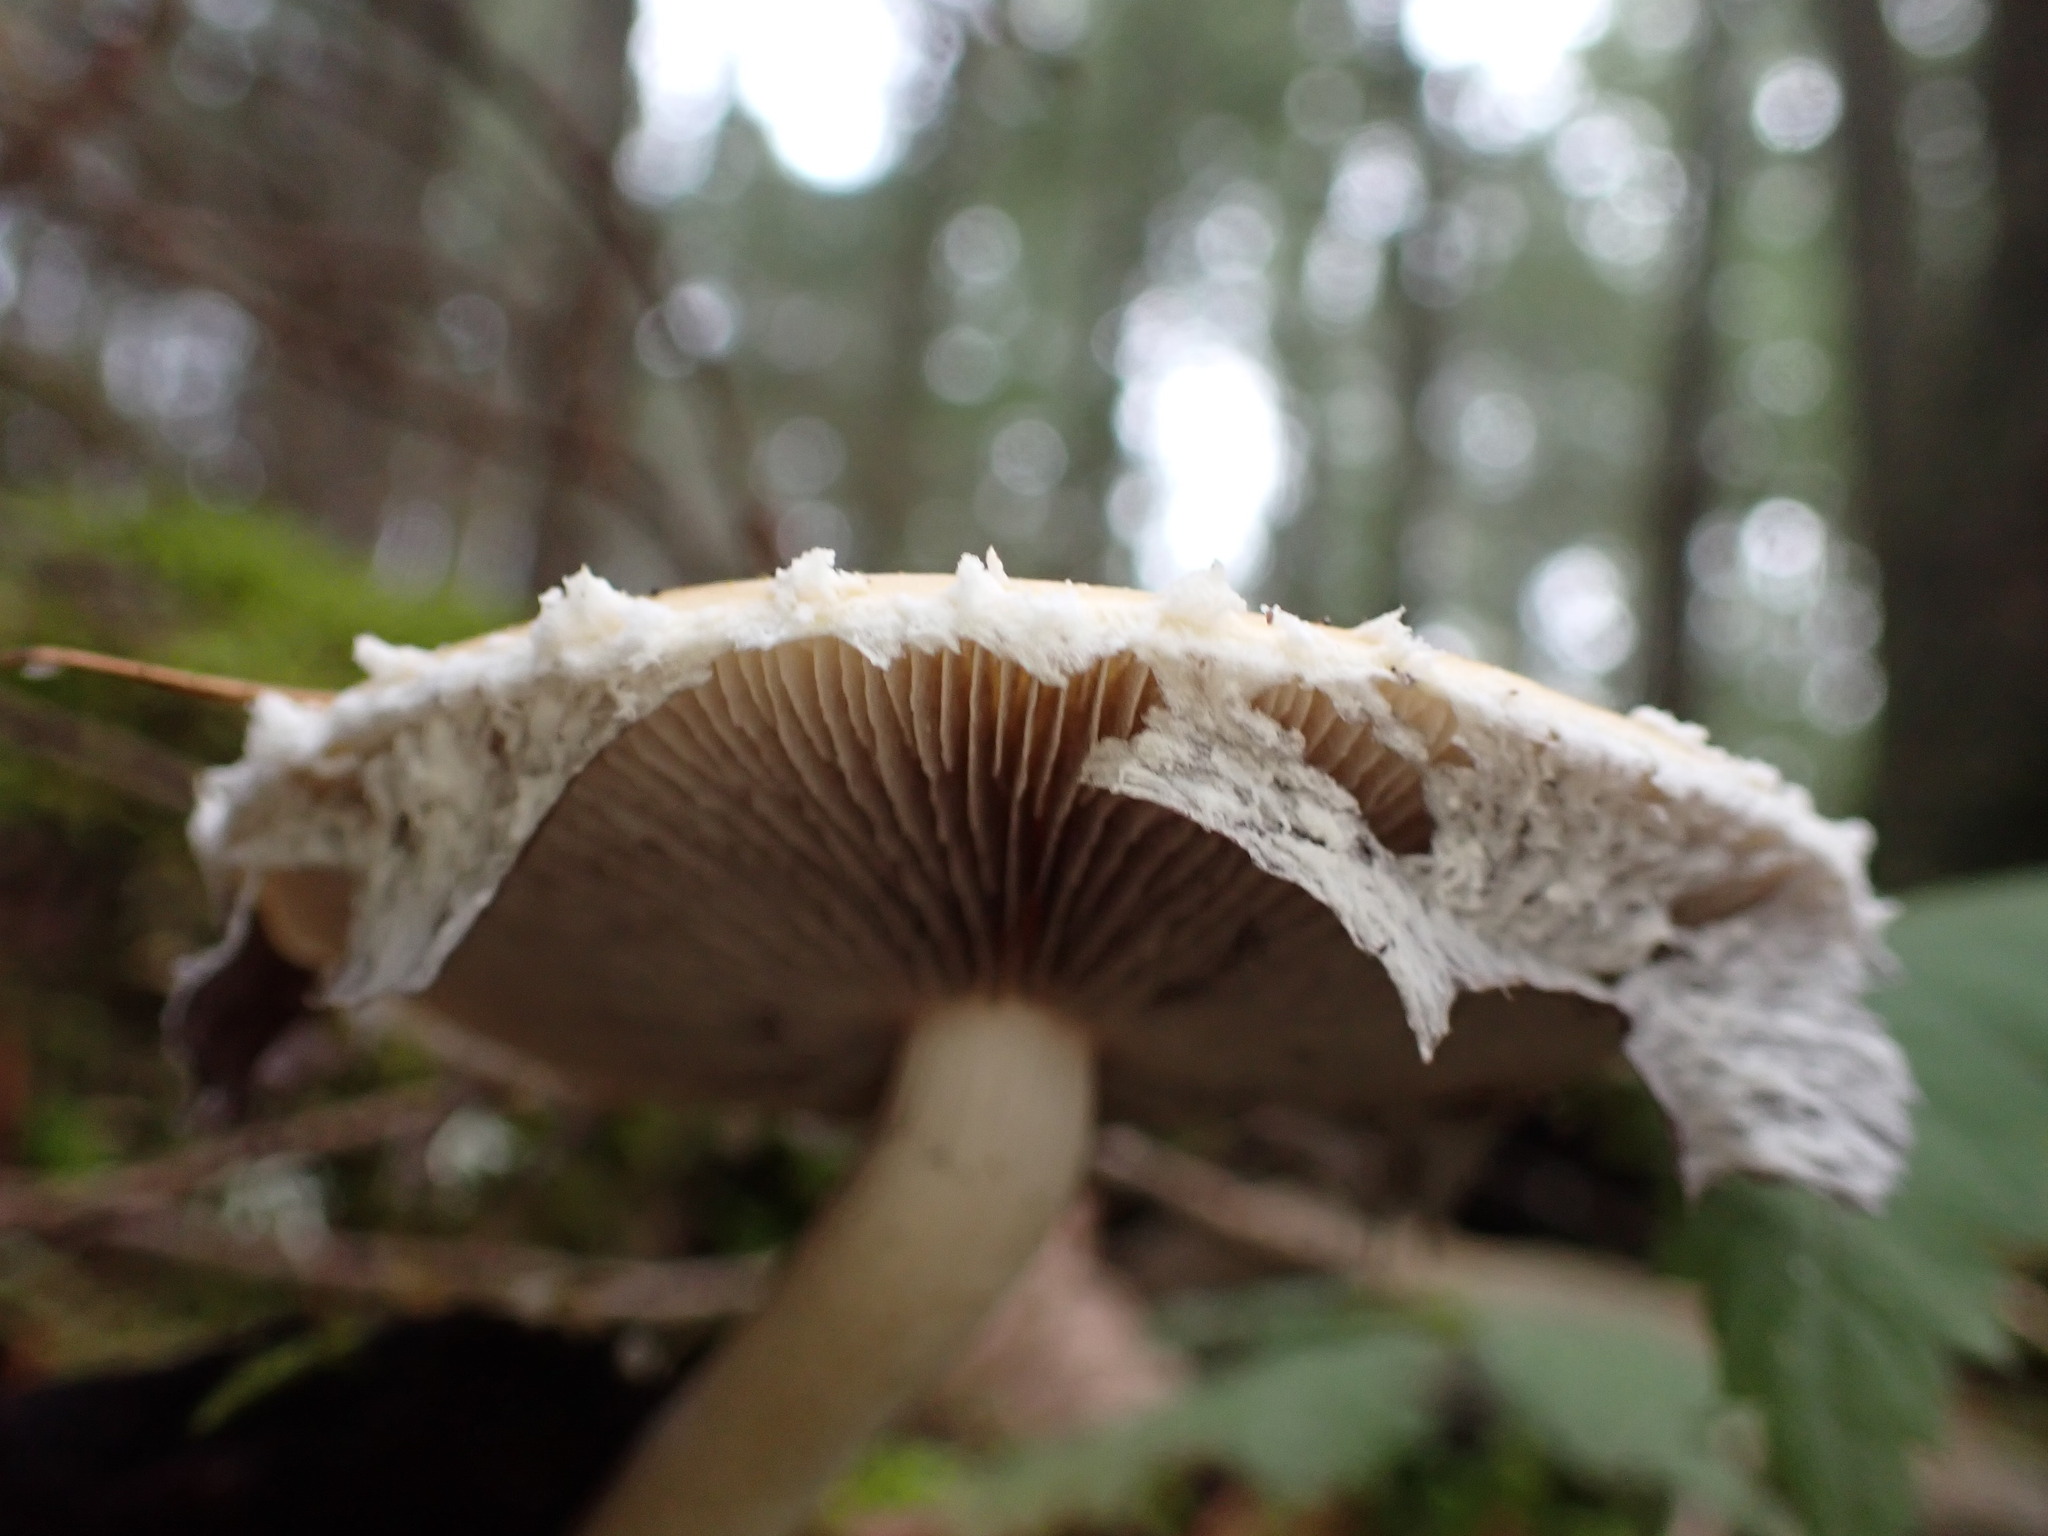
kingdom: Fungi
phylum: Basidiomycota
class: Agaricomycetes
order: Agaricales
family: Strophariaceae
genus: Stropharia
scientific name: Stropharia ambigua
